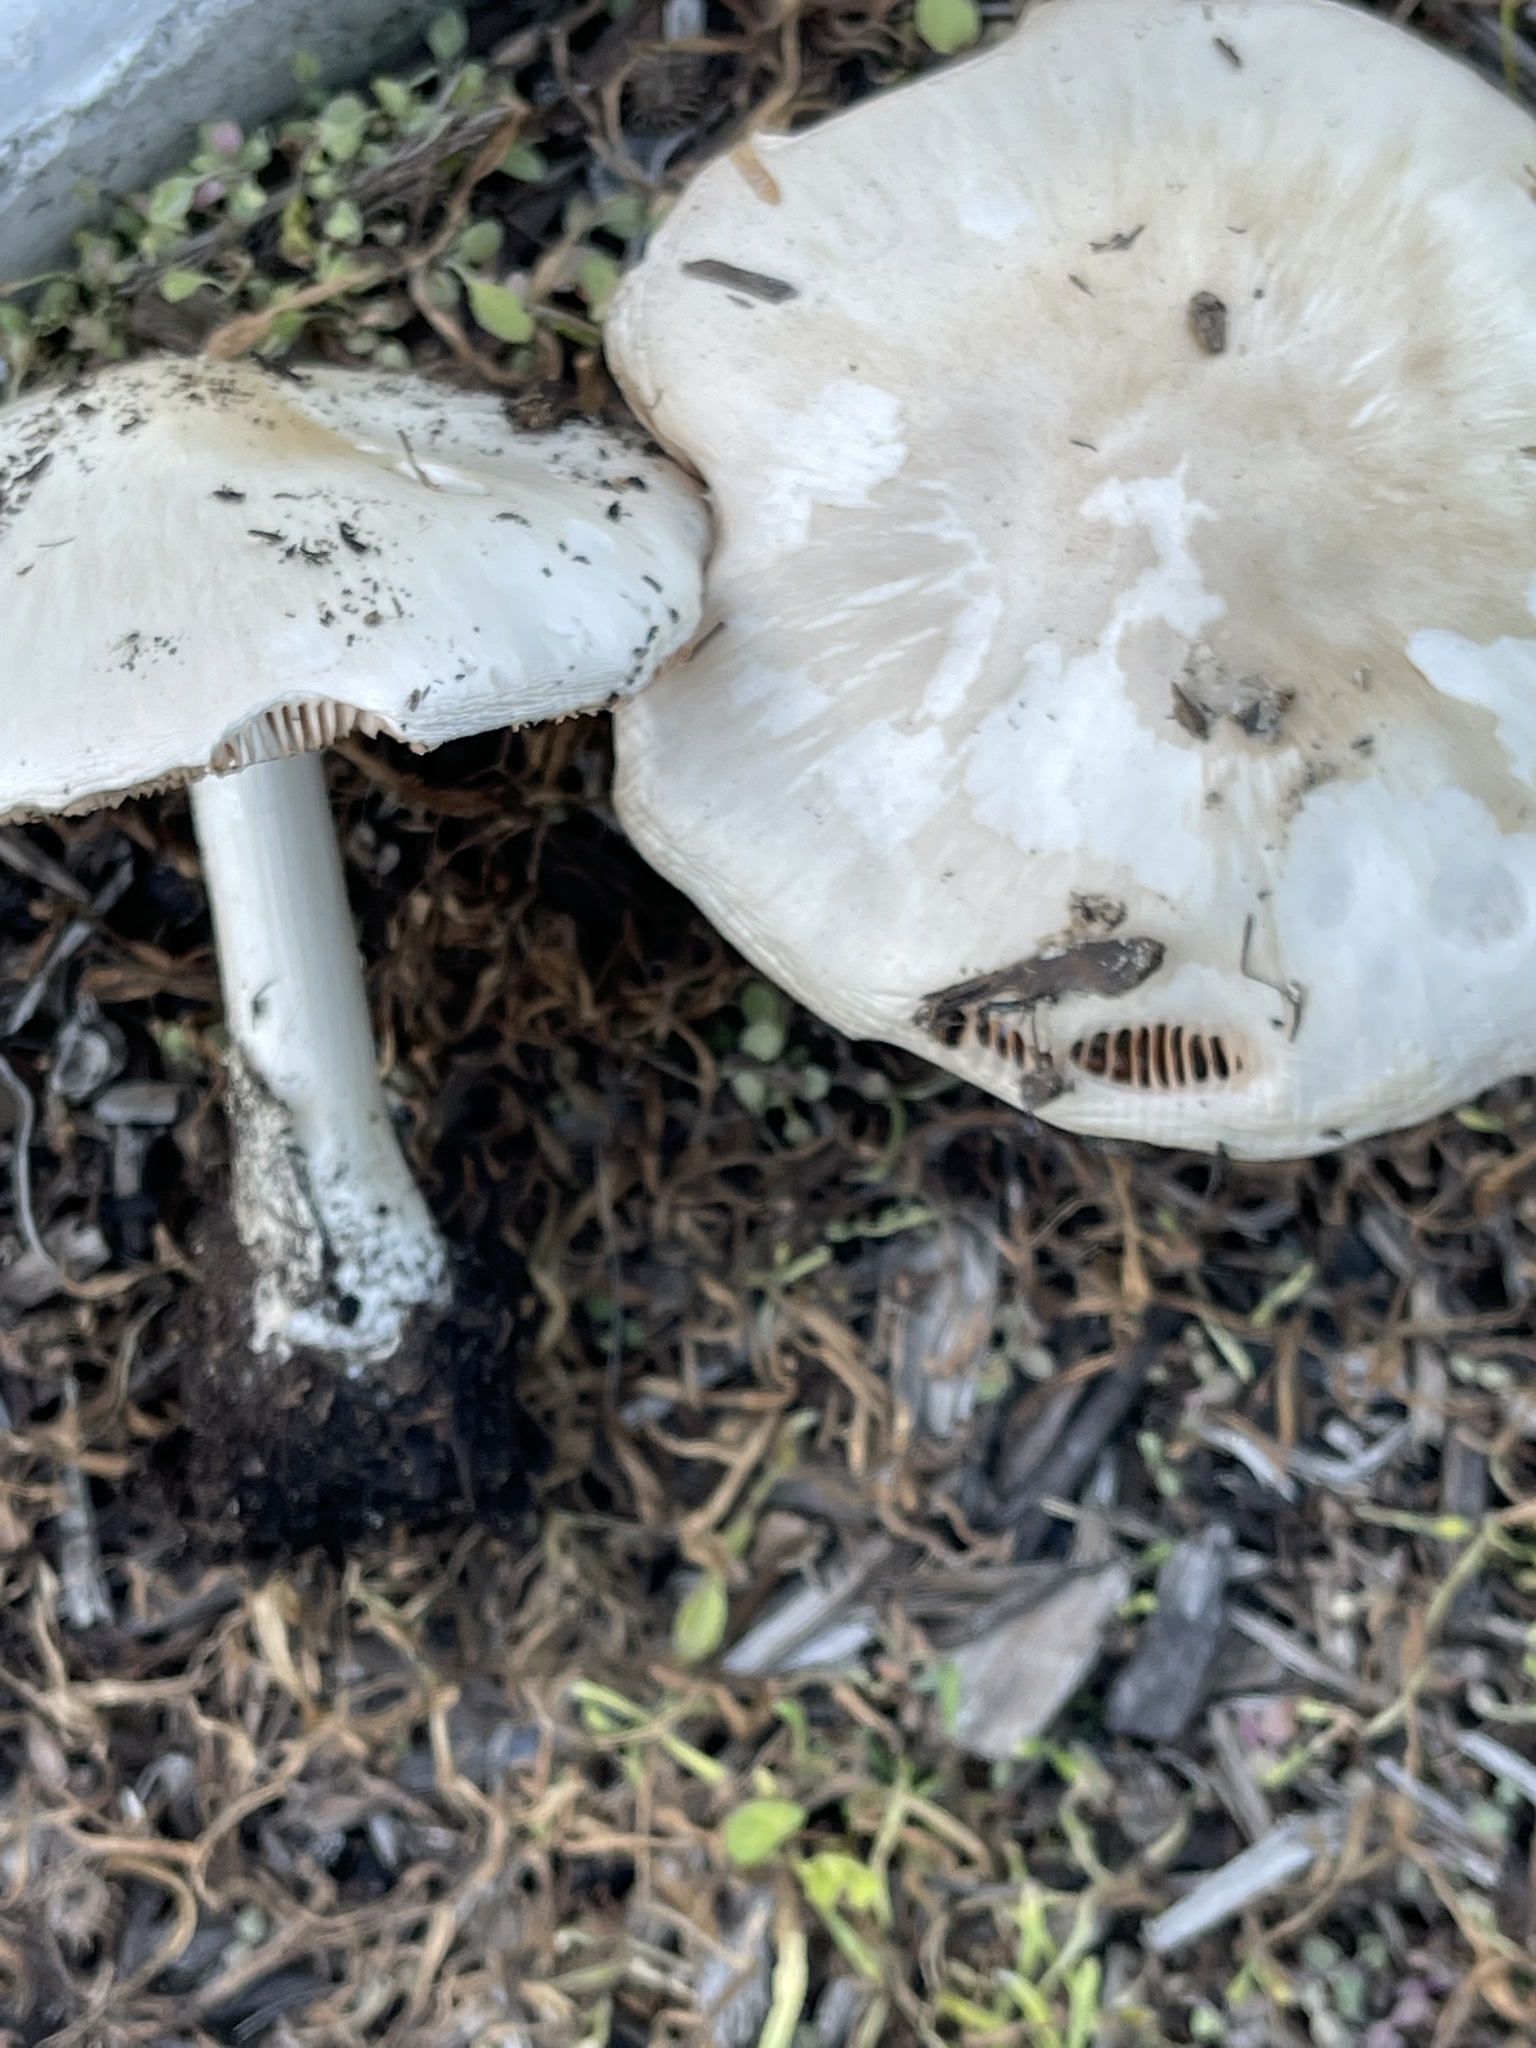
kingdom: Fungi
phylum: Basidiomycota
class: Agaricomycetes
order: Agaricales
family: Pluteaceae
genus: Volvopluteus
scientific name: Volvopluteus gloiocephalus
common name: Stubble rosegill
